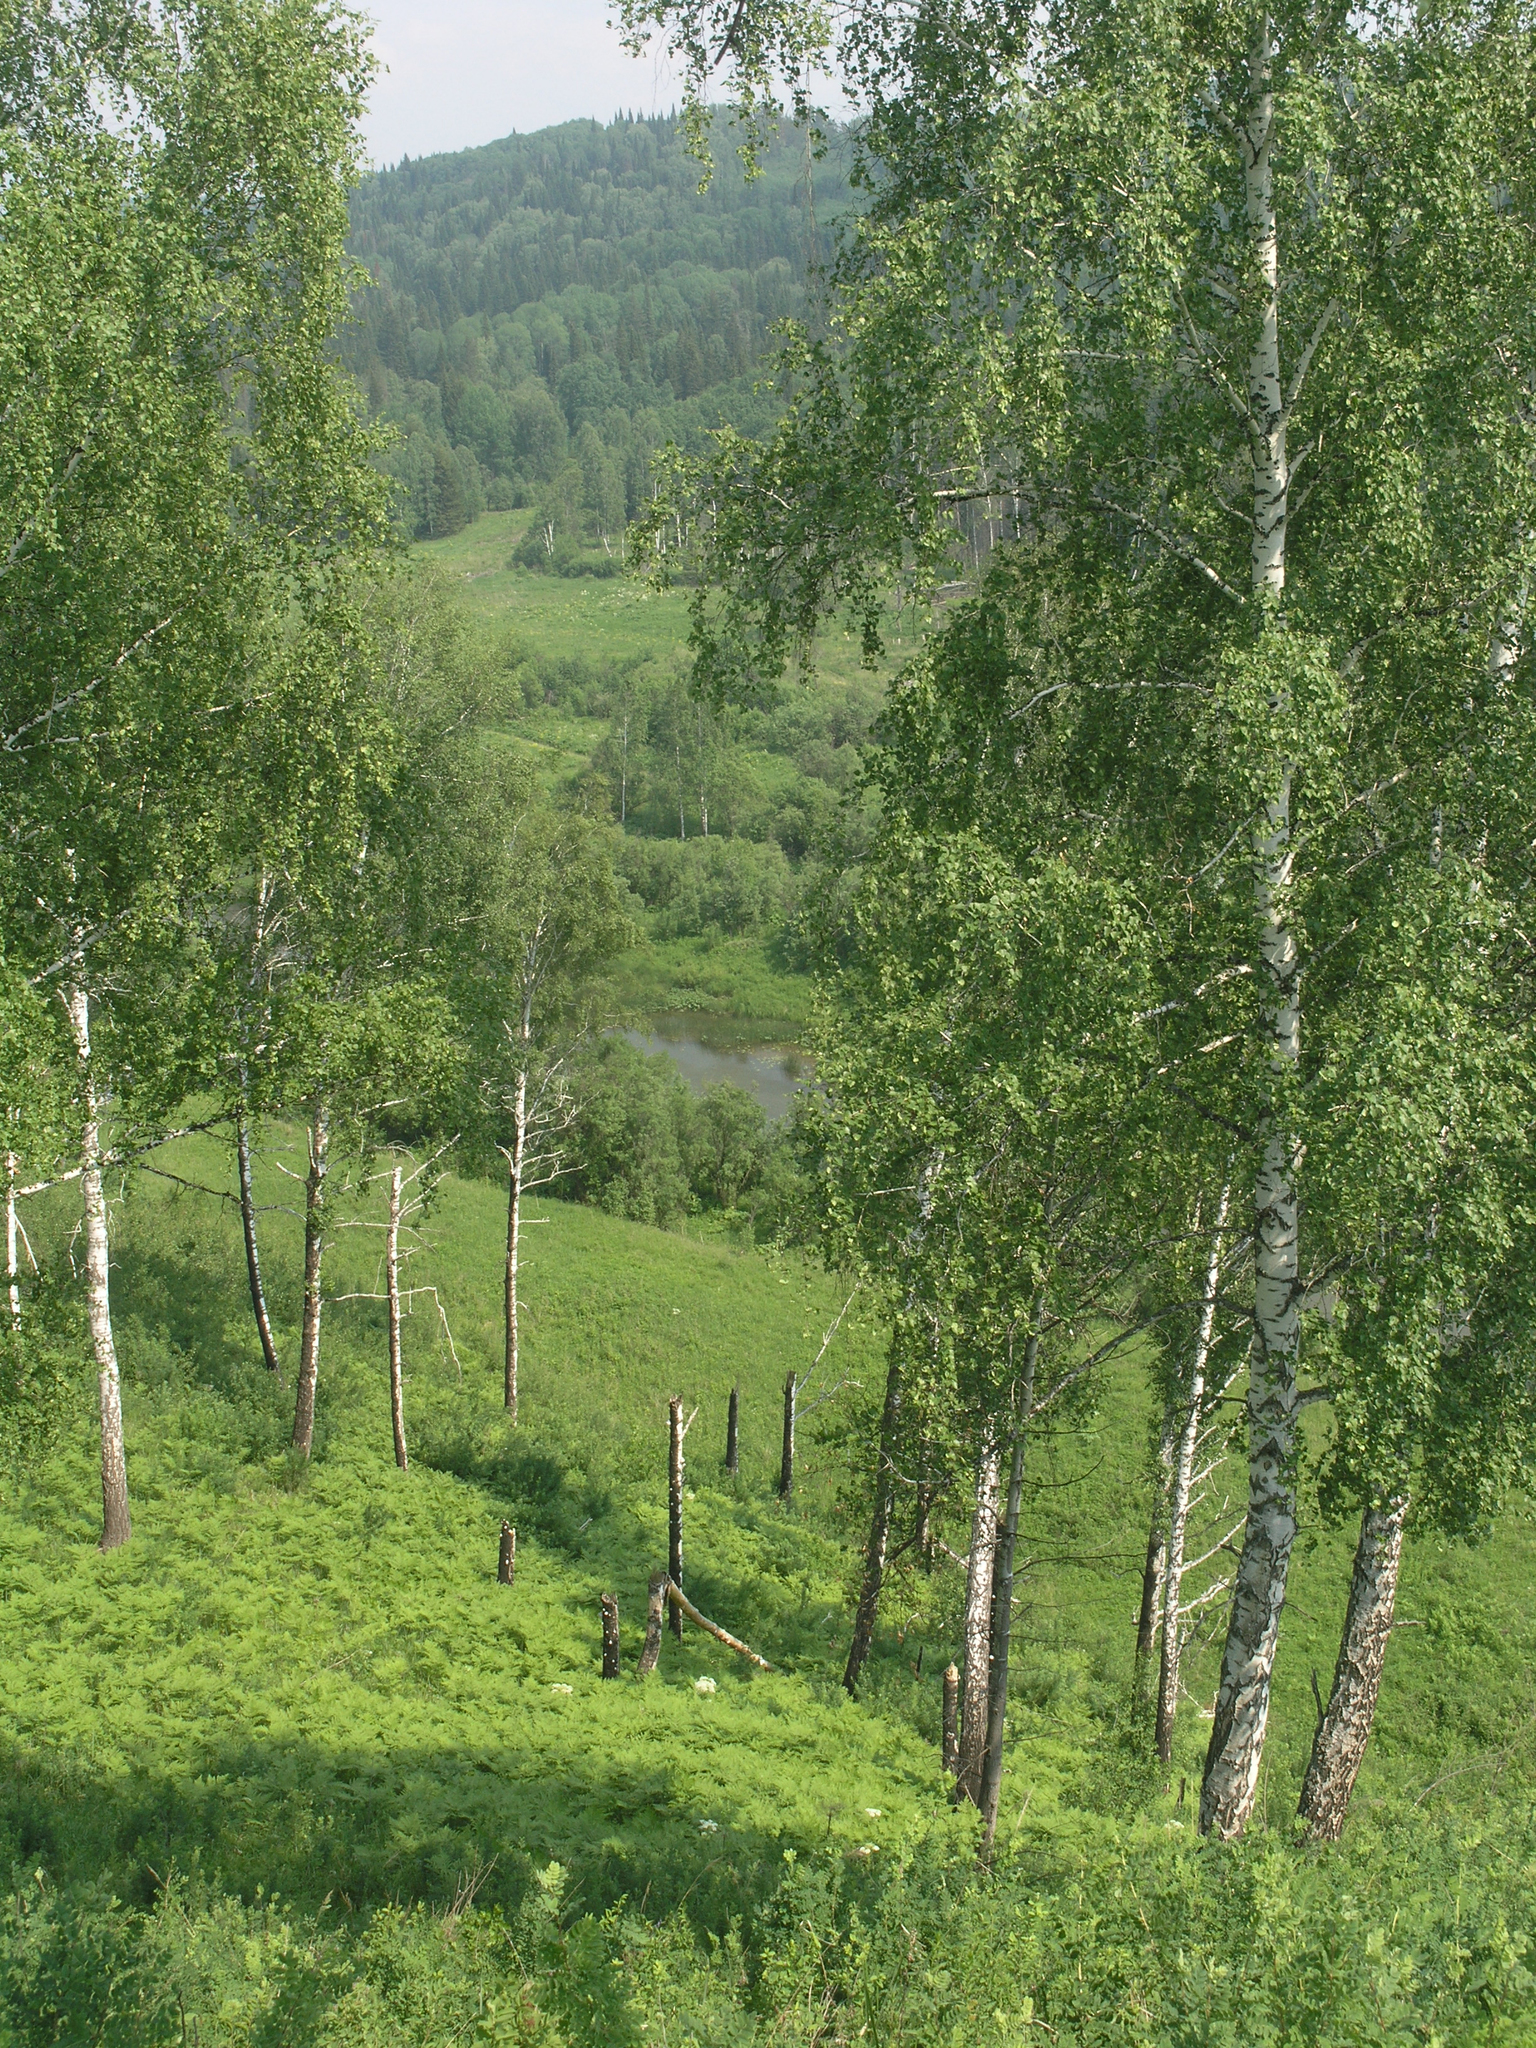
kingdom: Plantae
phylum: Tracheophyta
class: Magnoliopsida
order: Fagales
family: Betulaceae
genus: Betula
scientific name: Betula pendula
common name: Silver birch
